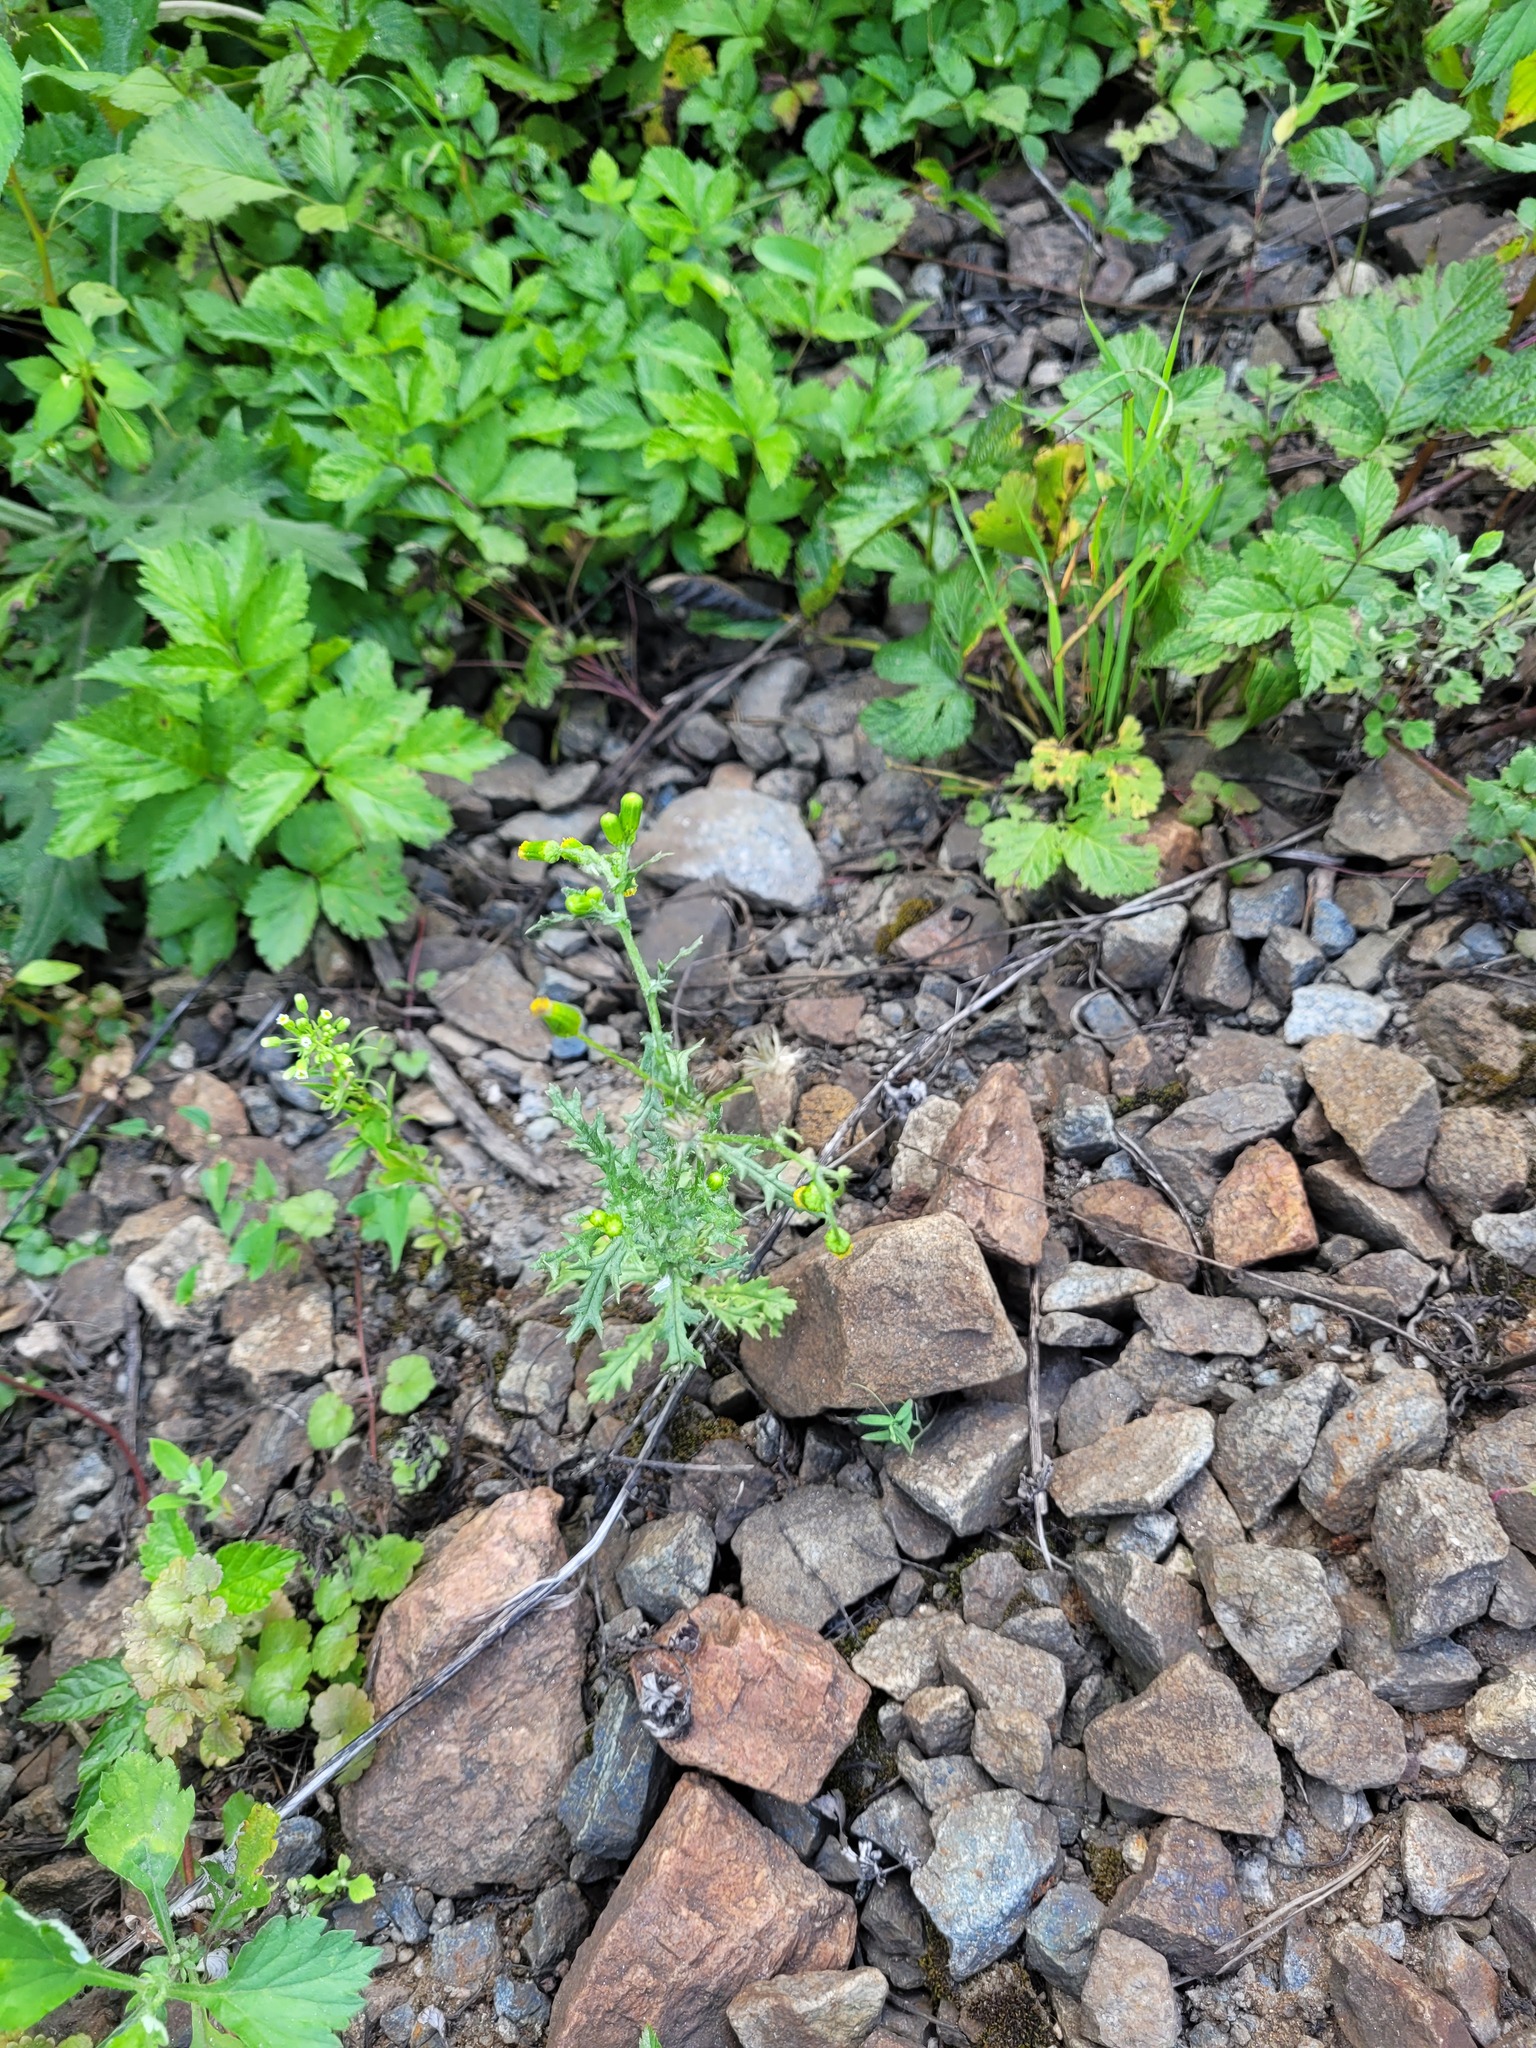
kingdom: Plantae
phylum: Tracheophyta
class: Magnoliopsida
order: Asterales
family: Asteraceae
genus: Senecio
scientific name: Senecio vulgaris
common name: Old-man-in-the-spring
